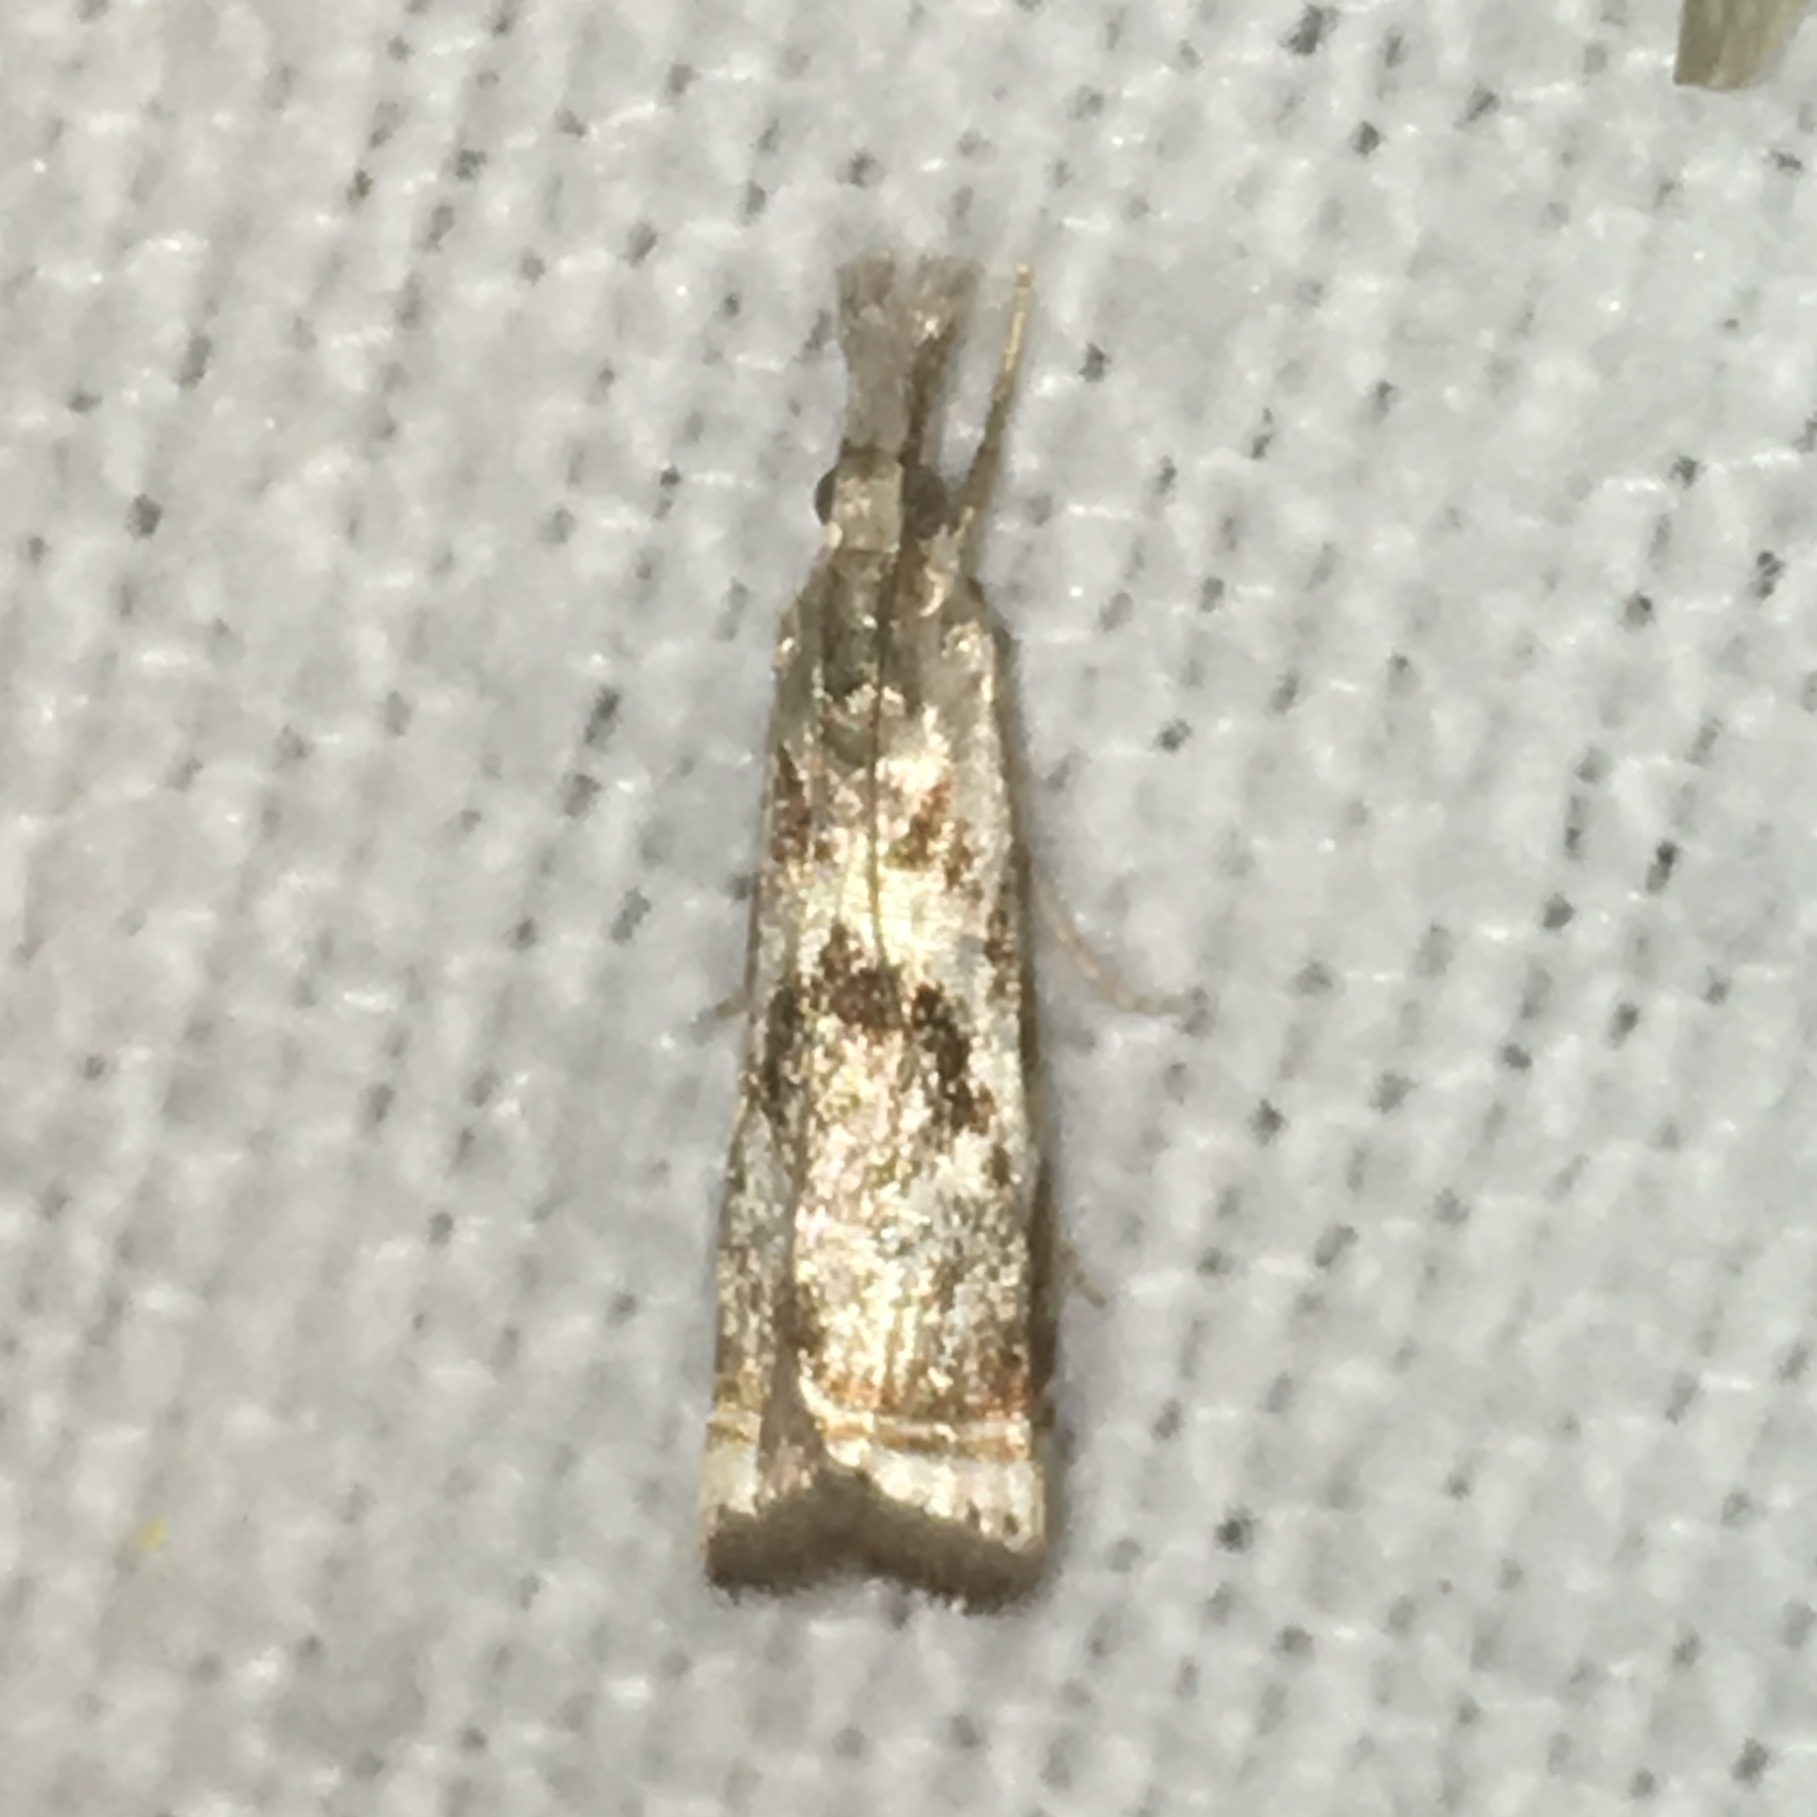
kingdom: Animalia
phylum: Arthropoda
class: Insecta
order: Lepidoptera
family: Crambidae
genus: Microcrambus
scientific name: Microcrambus elegans
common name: Elegant grass-veneer
